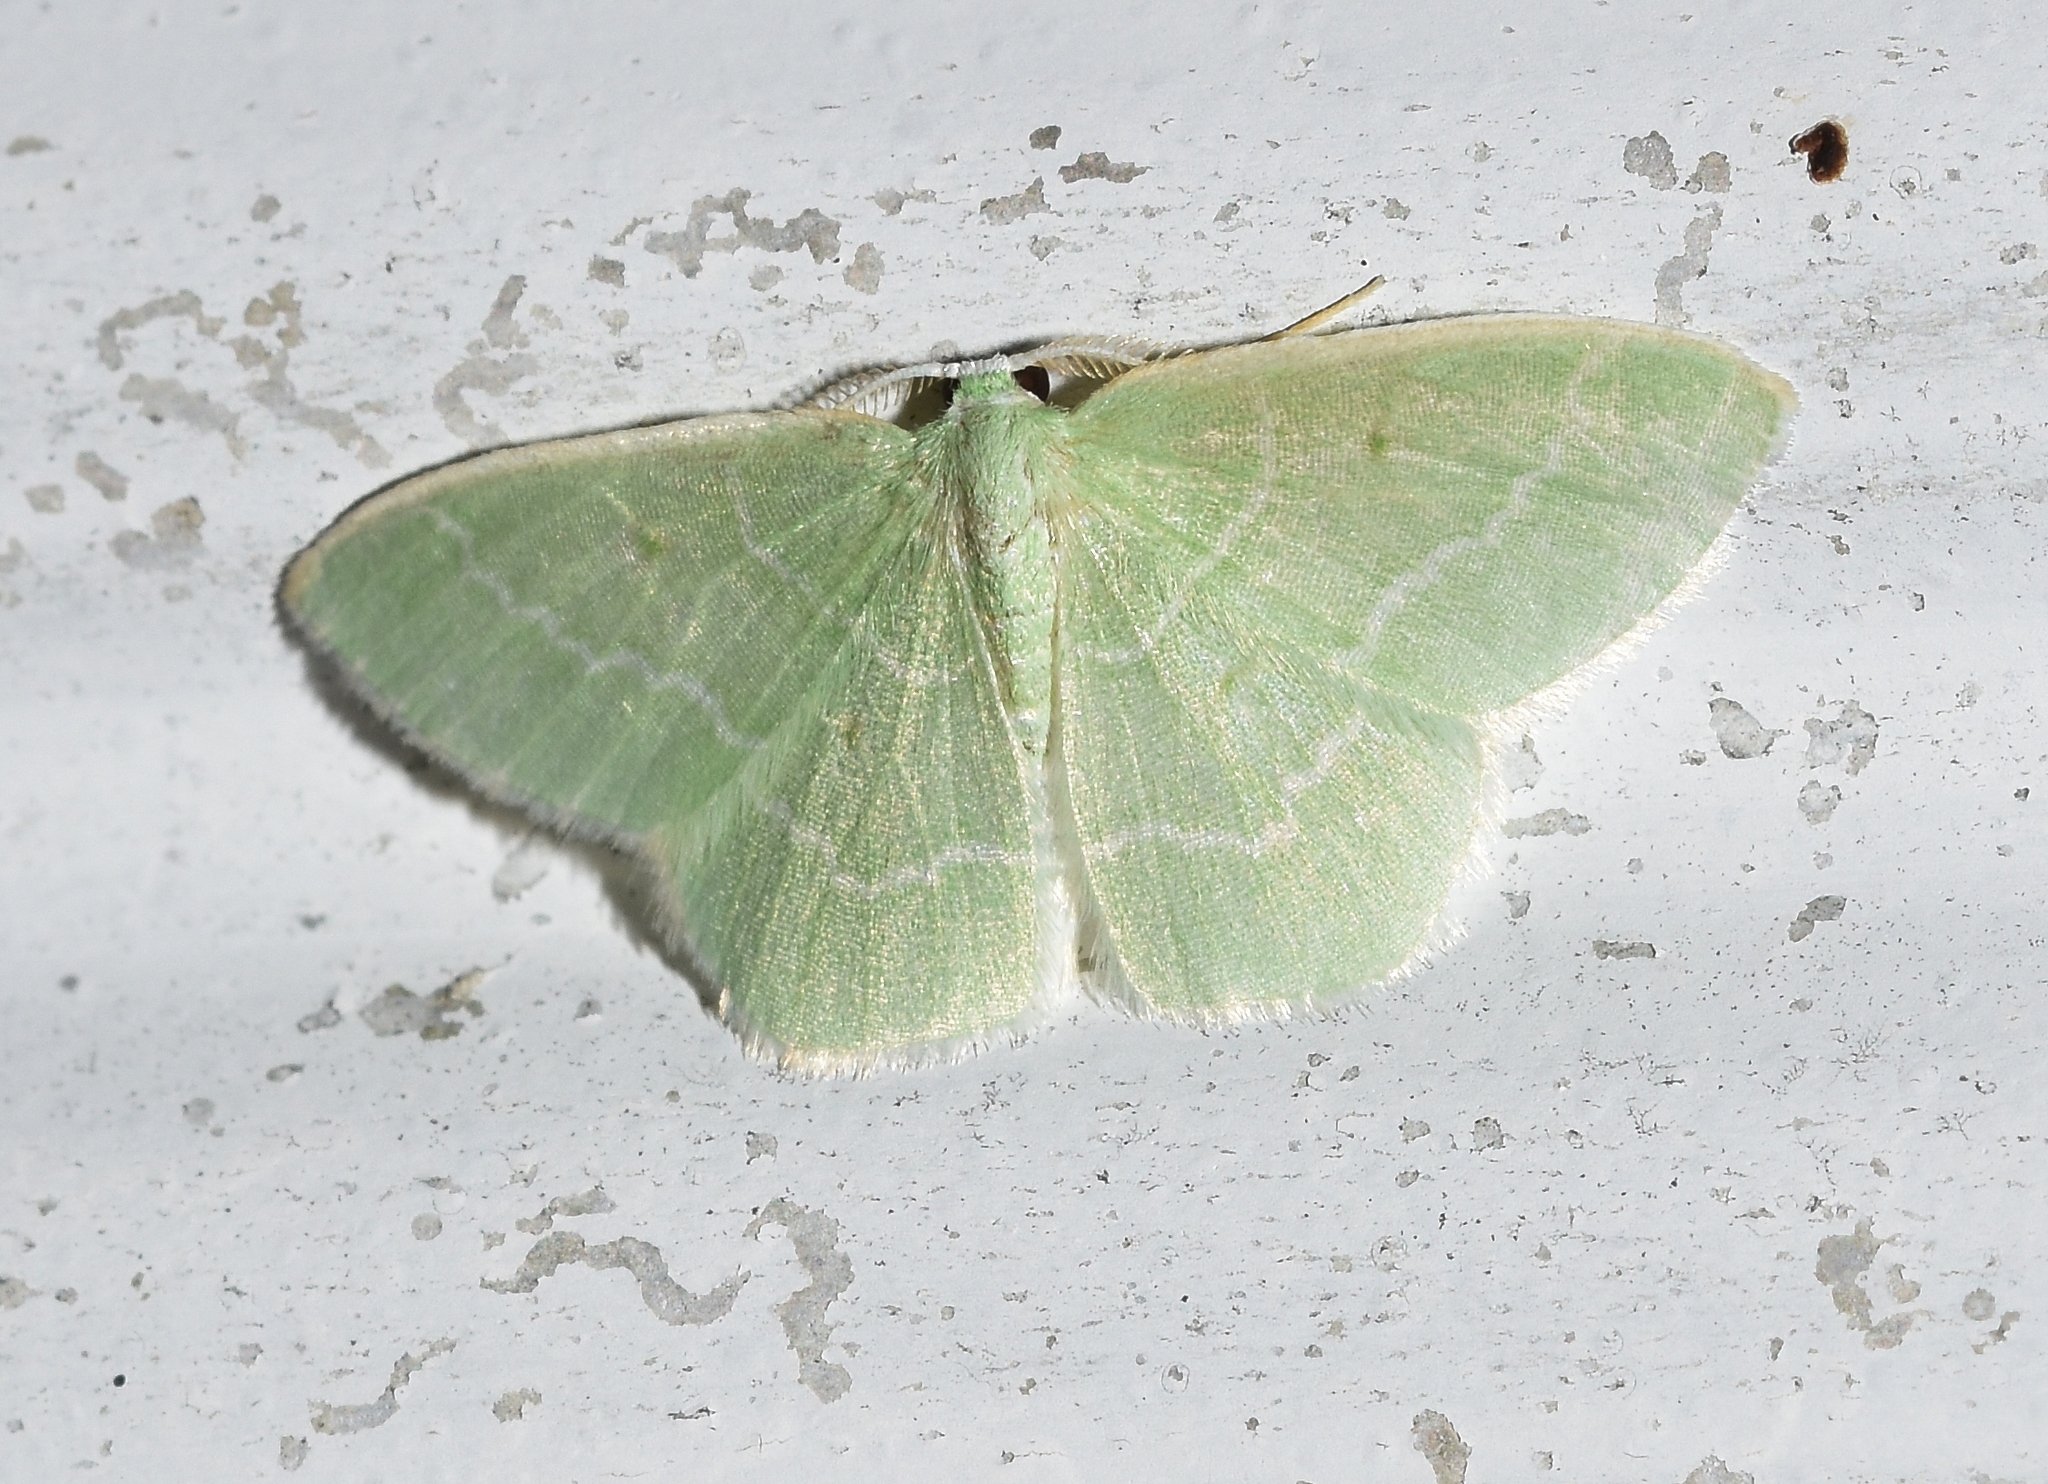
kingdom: Animalia
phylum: Arthropoda
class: Insecta
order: Lepidoptera
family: Geometridae
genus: Synchlora
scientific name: Synchlora aerata
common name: Wavy-lined emerald
